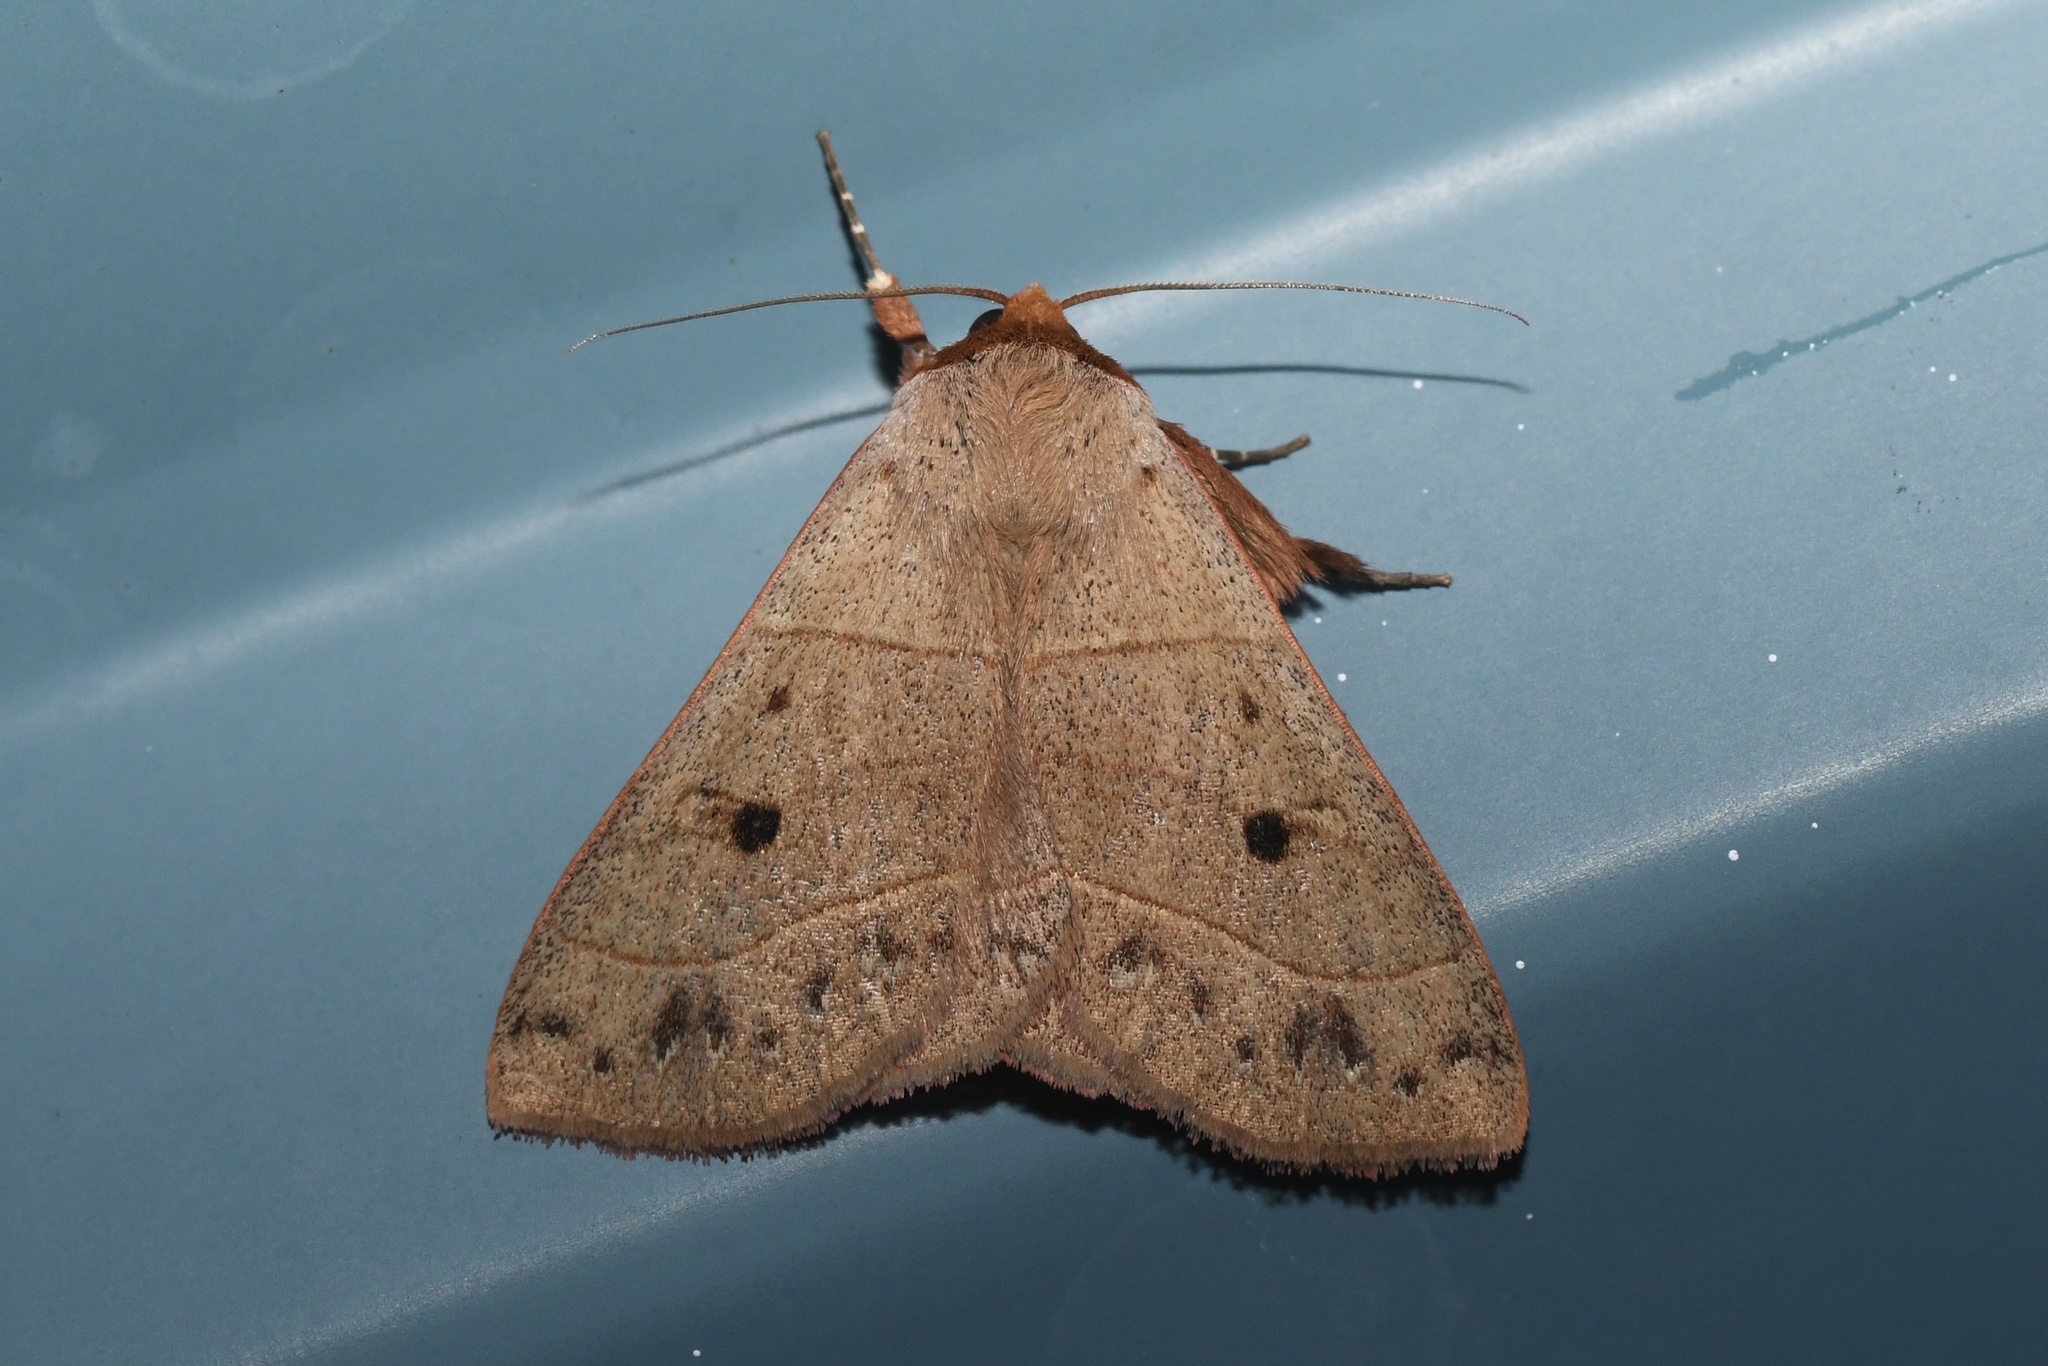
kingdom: Animalia
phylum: Arthropoda
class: Insecta
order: Lepidoptera
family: Erebidae
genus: Panopoda
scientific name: Panopoda rufimargo
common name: Red-lined panopoda moth
